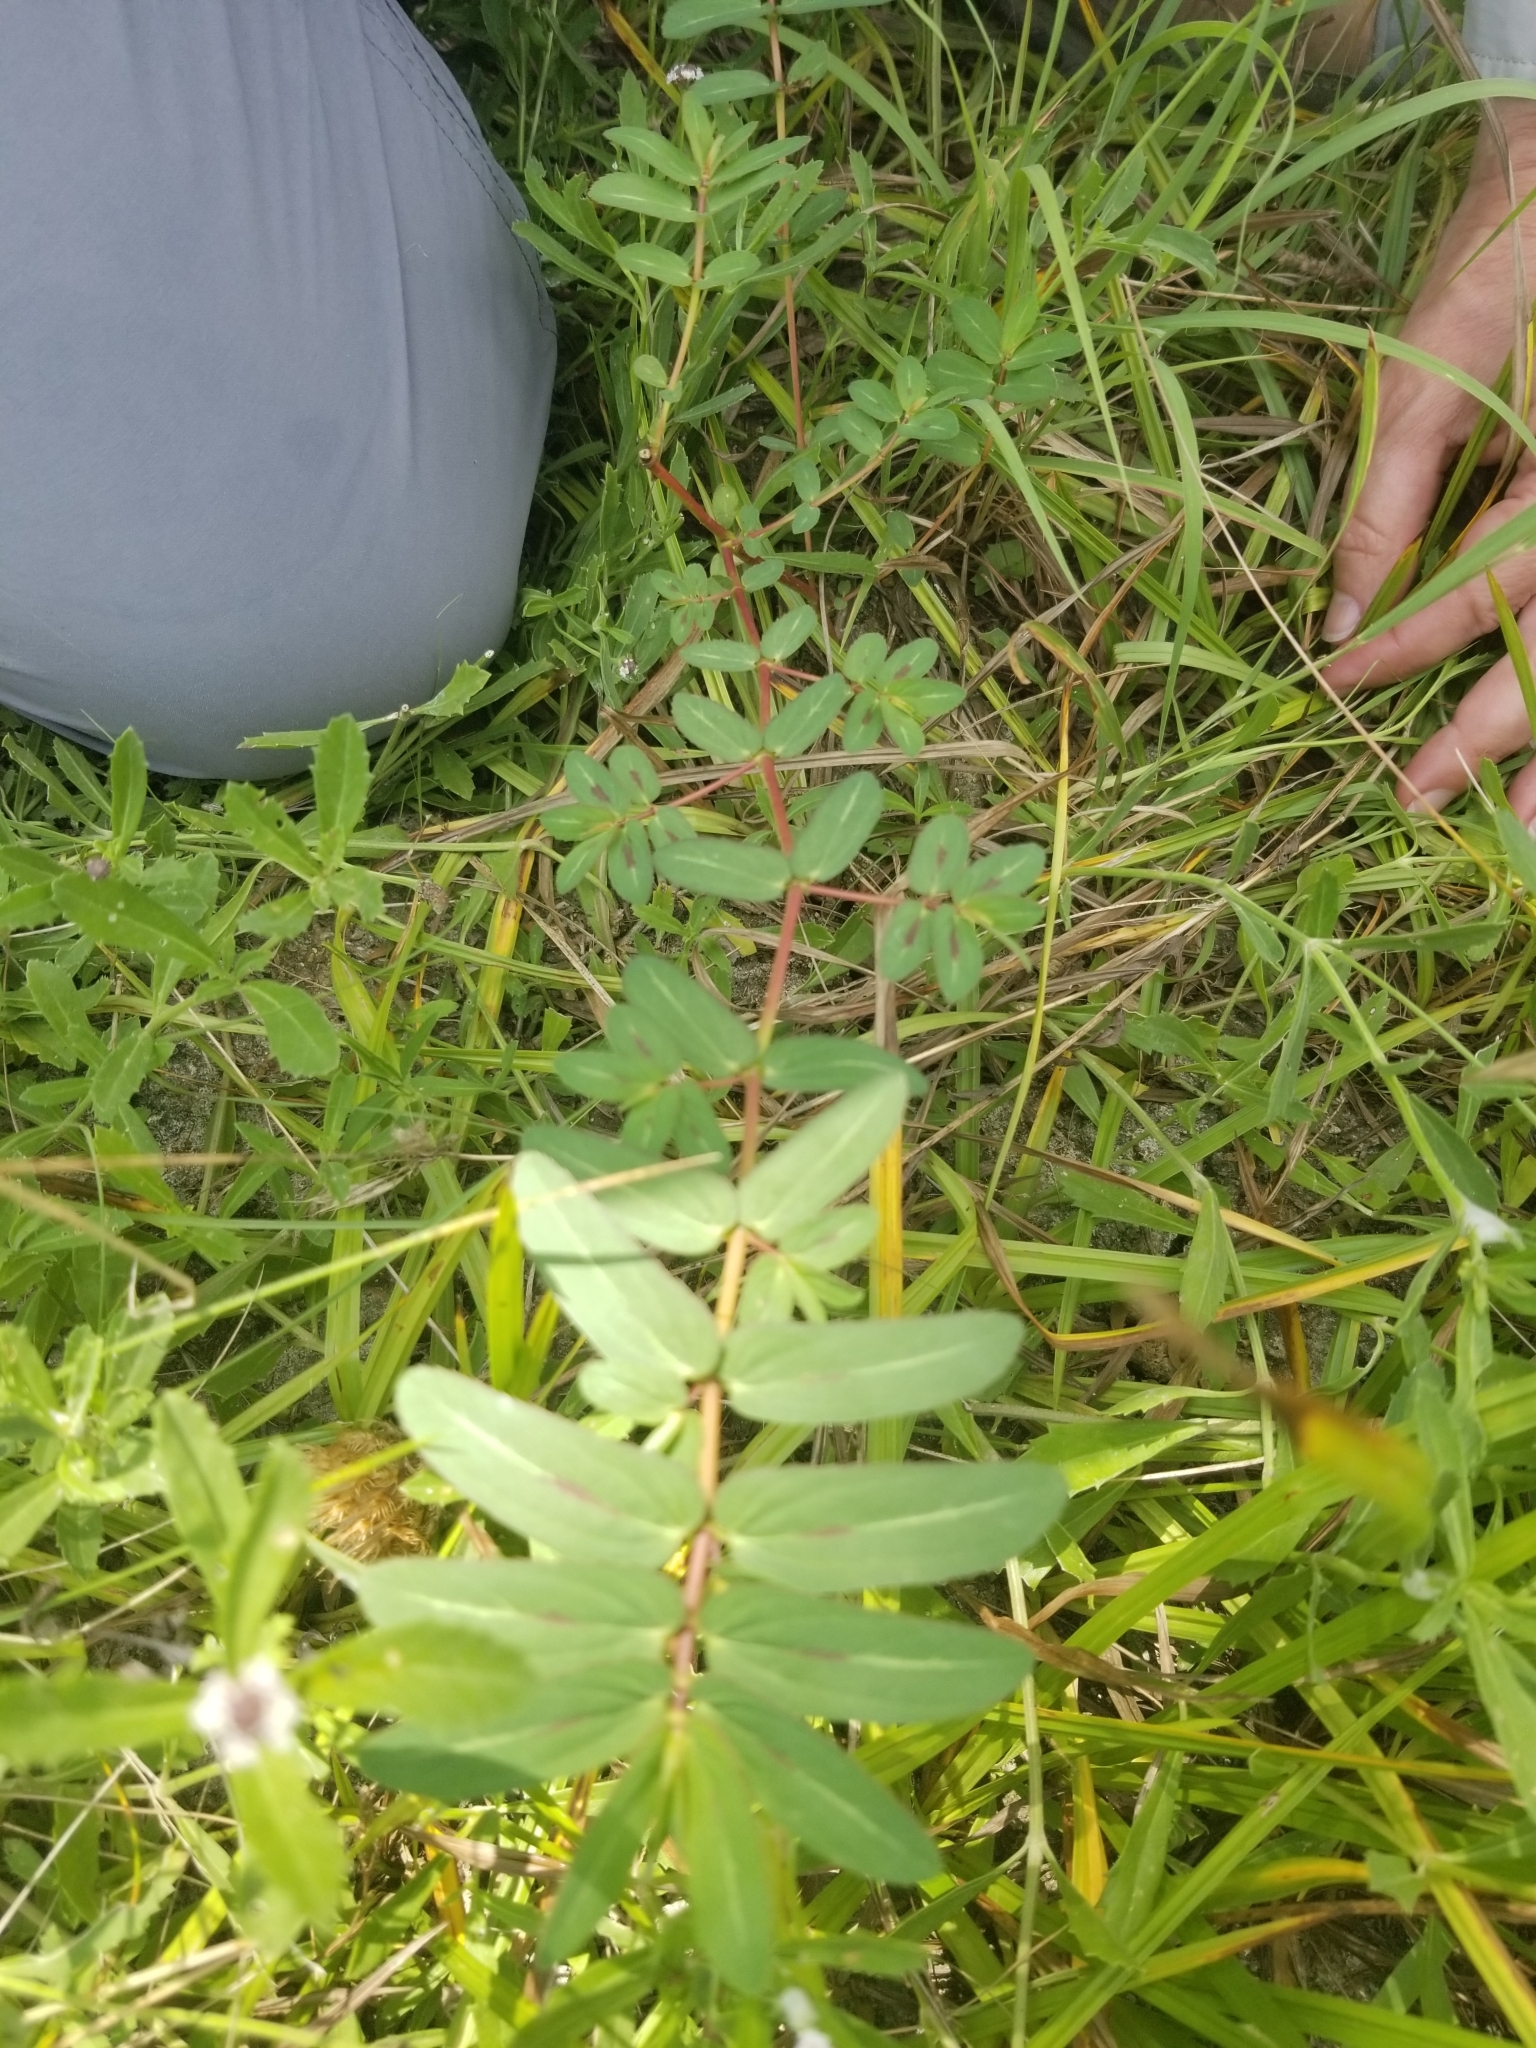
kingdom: Plantae
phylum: Tracheophyta
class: Magnoliopsida
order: Malpighiales
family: Euphorbiaceae
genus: Euphorbia
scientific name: Euphorbia nutans
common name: Eyebane
